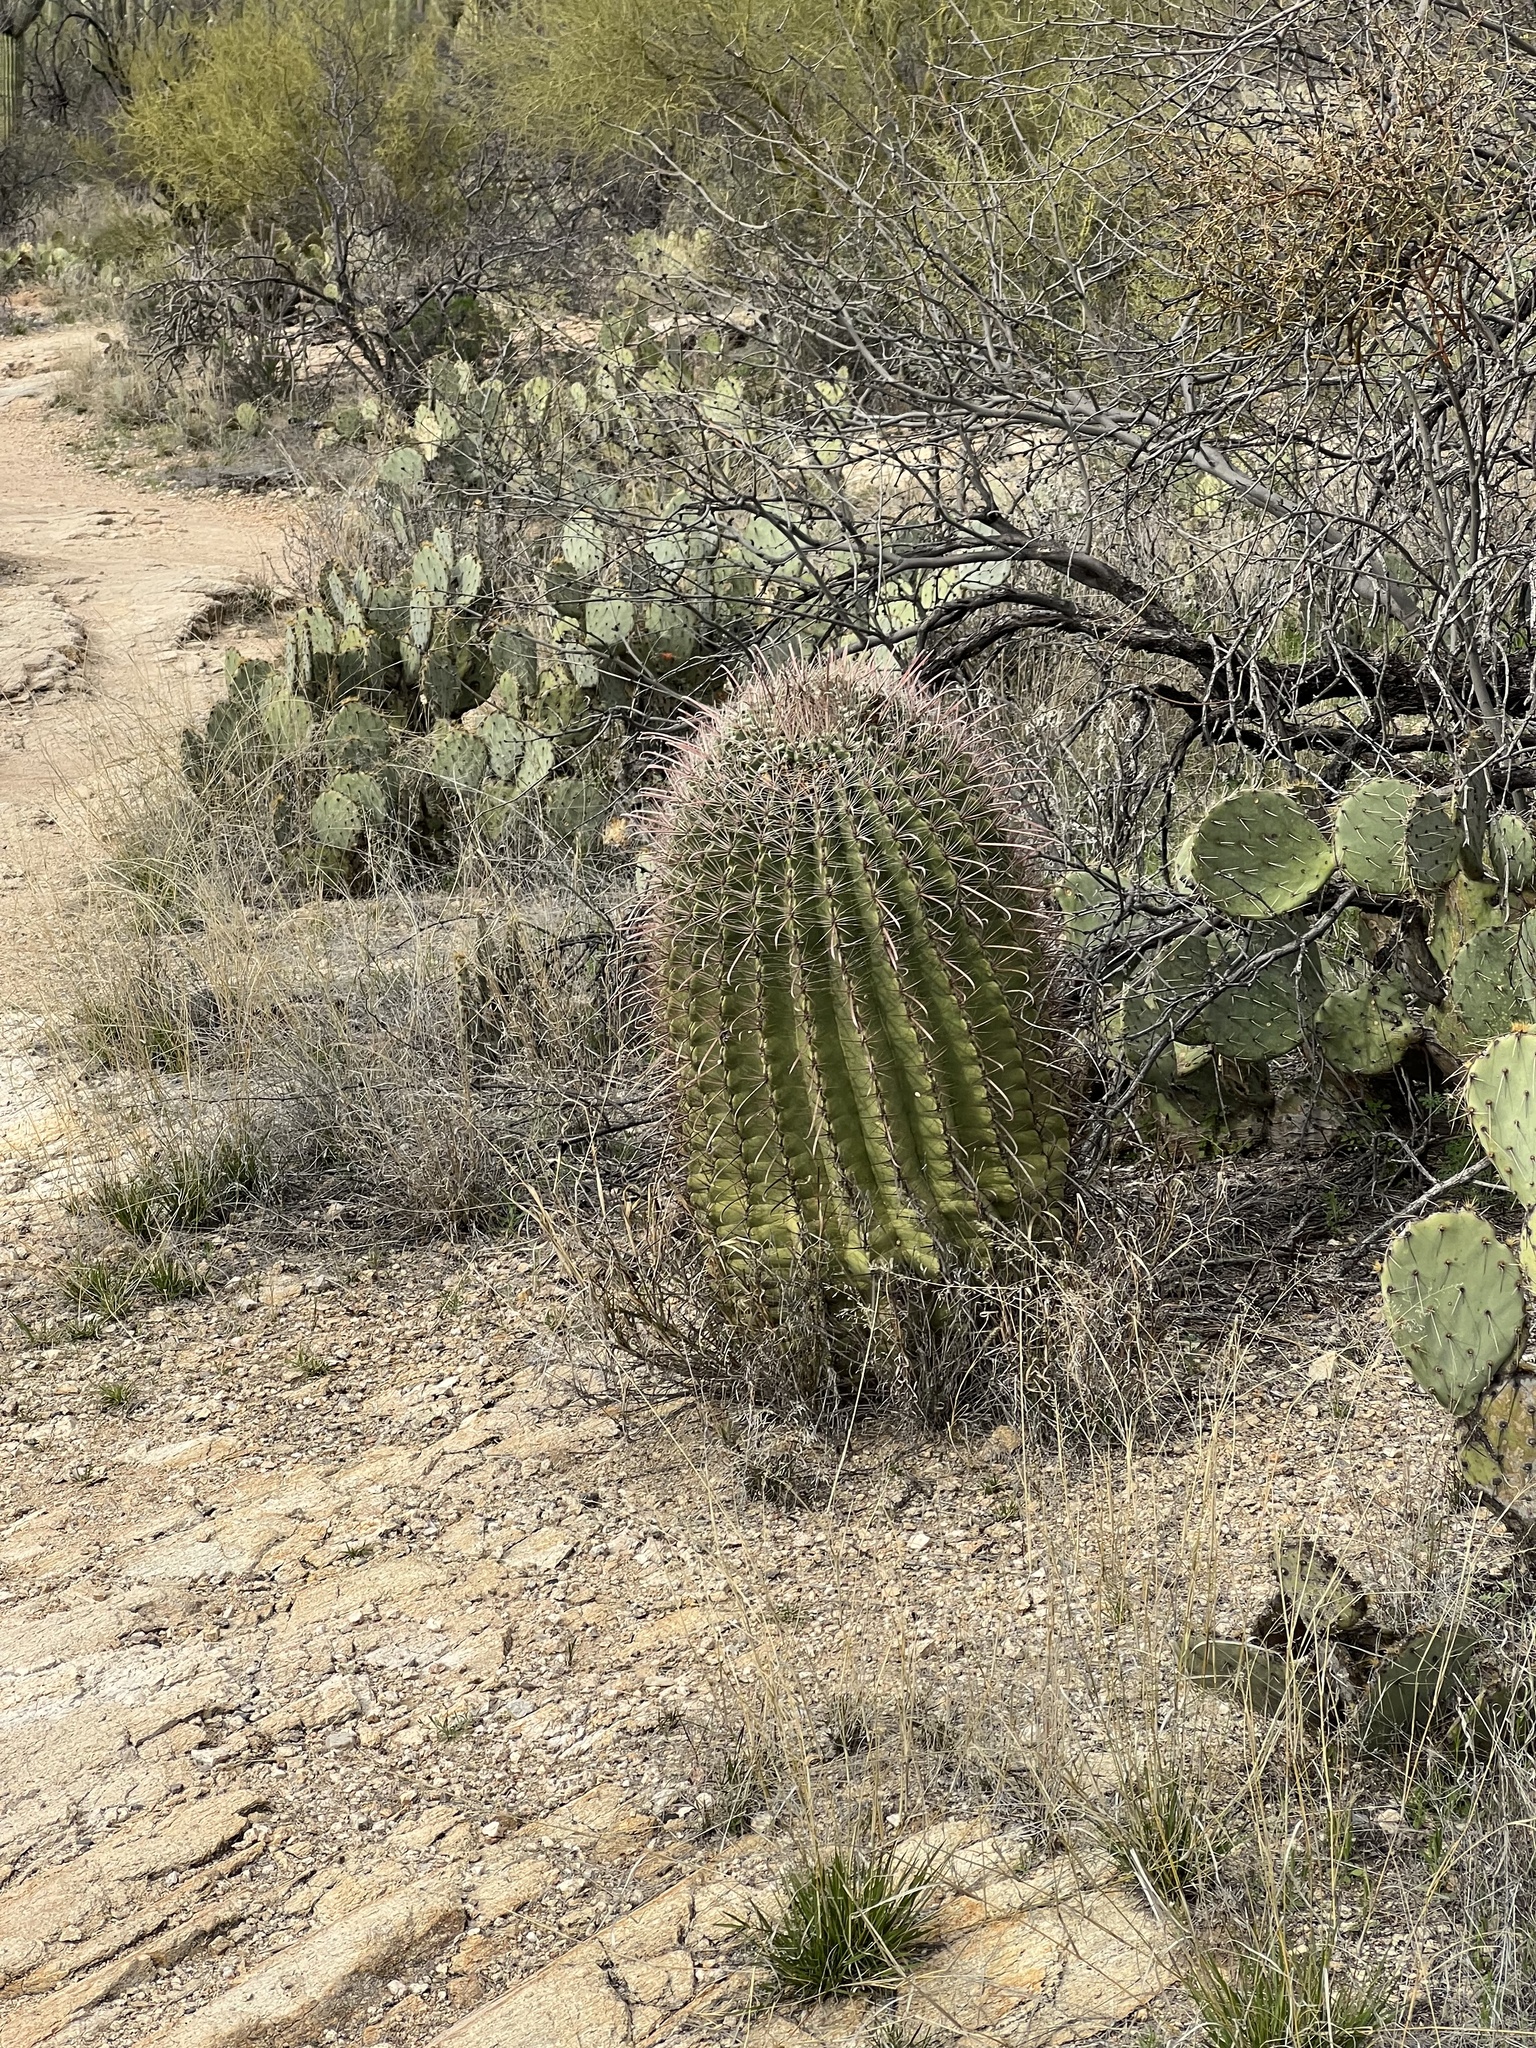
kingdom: Plantae
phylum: Tracheophyta
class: Magnoliopsida
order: Caryophyllales
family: Cactaceae
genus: Ferocactus
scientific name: Ferocactus wislizeni
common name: Candy barrel cactus
